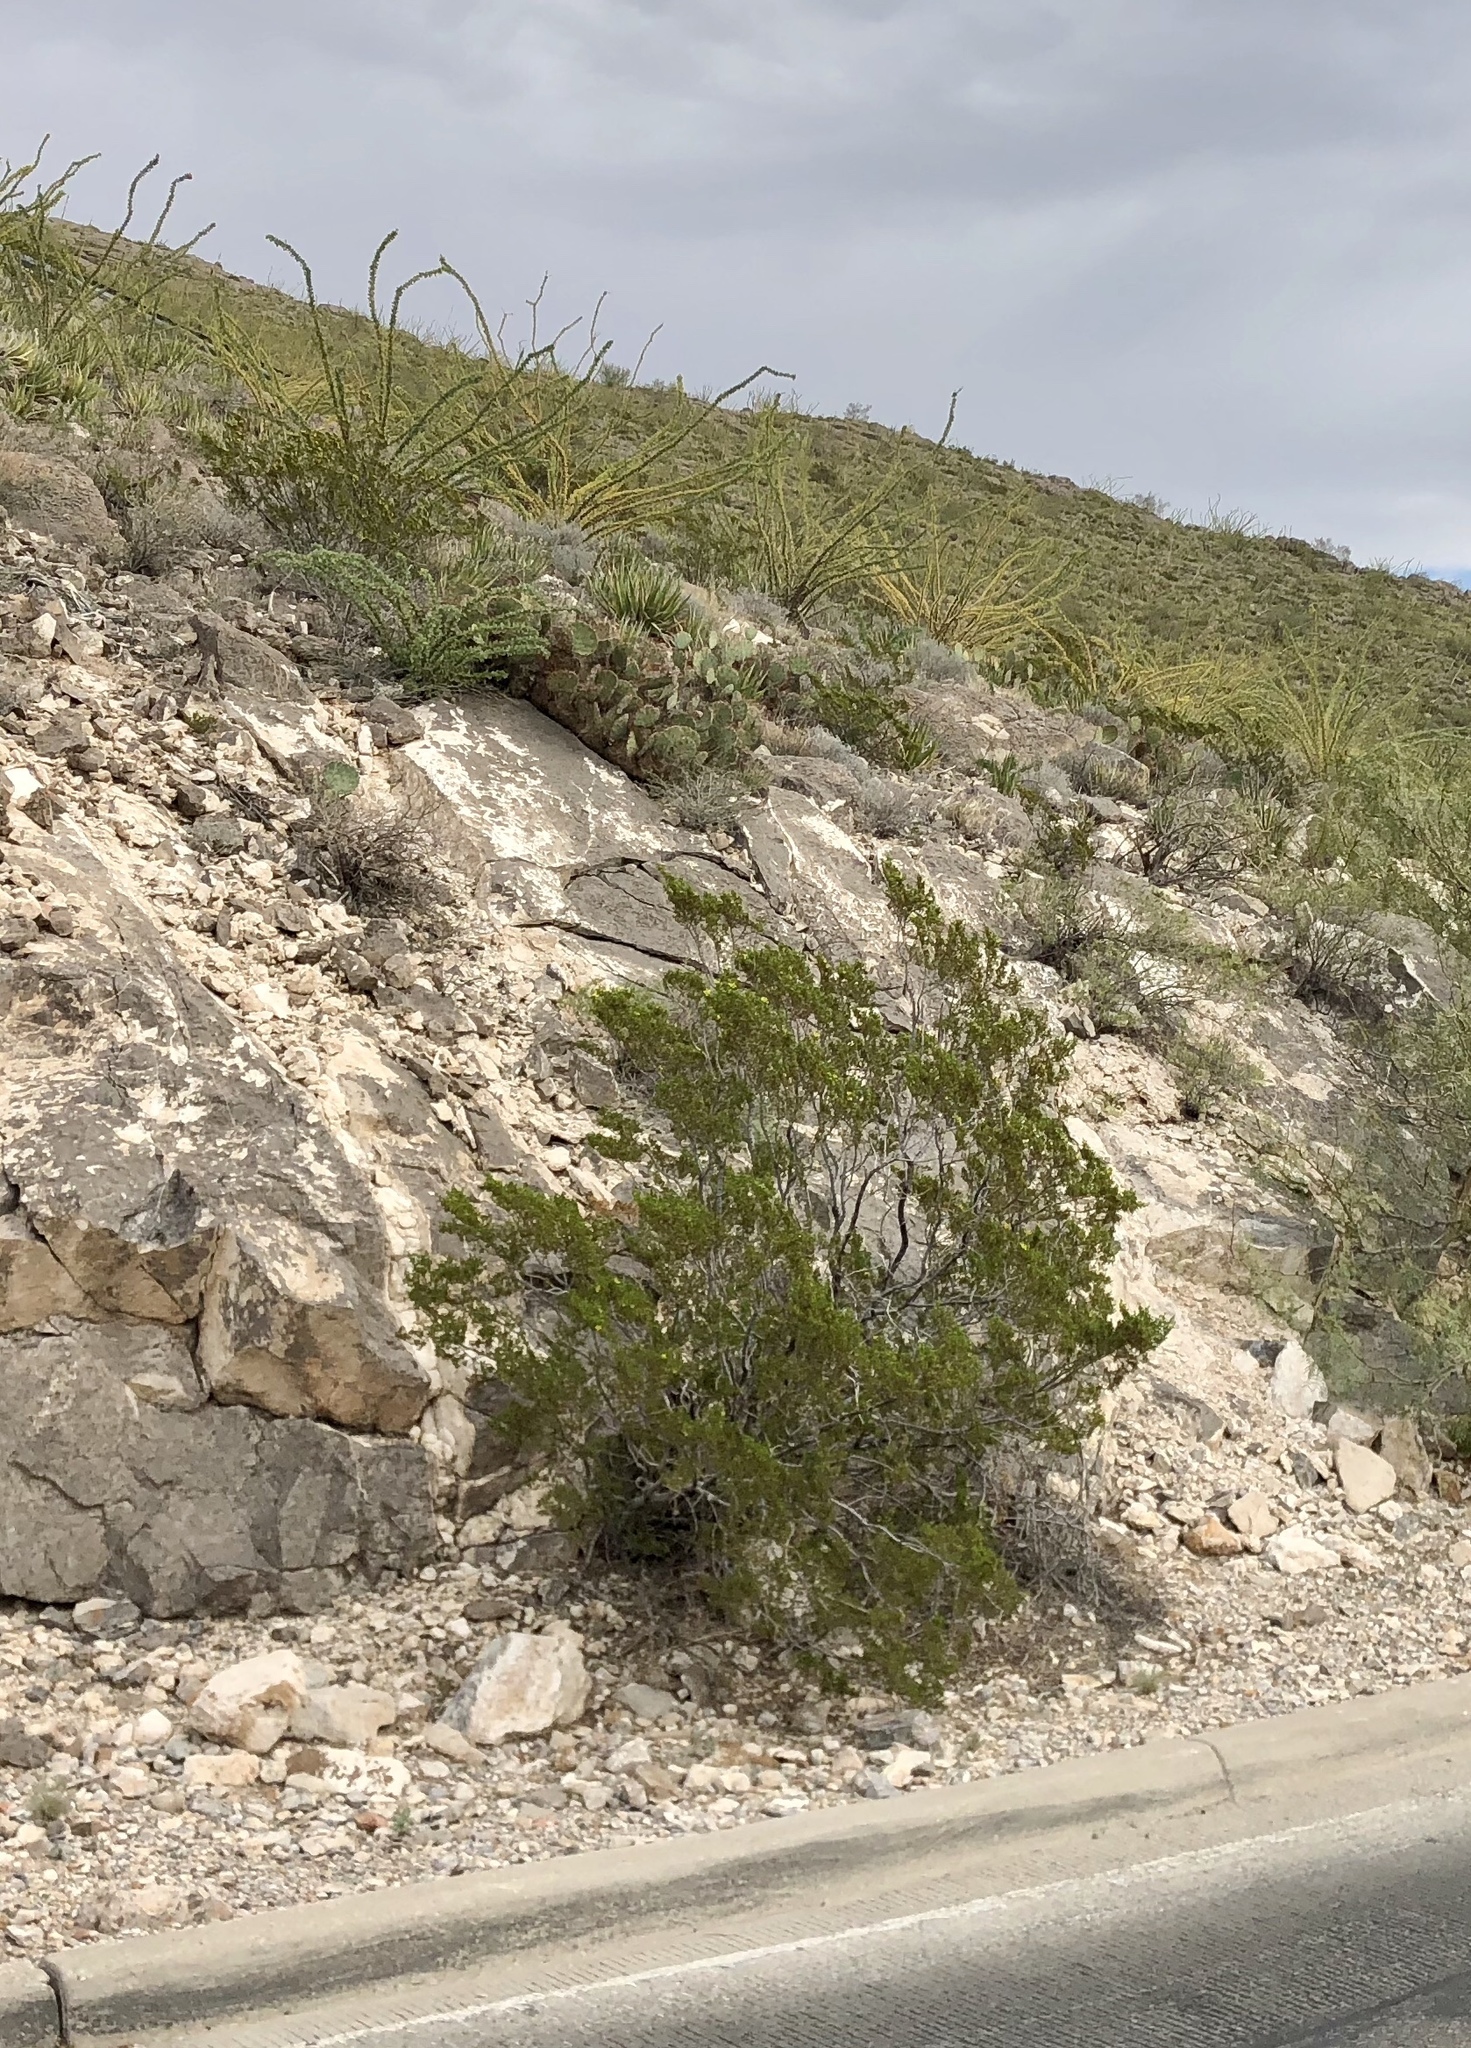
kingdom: Plantae
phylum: Tracheophyta
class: Magnoliopsida
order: Zygophyllales
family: Zygophyllaceae
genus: Larrea
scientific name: Larrea tridentata
